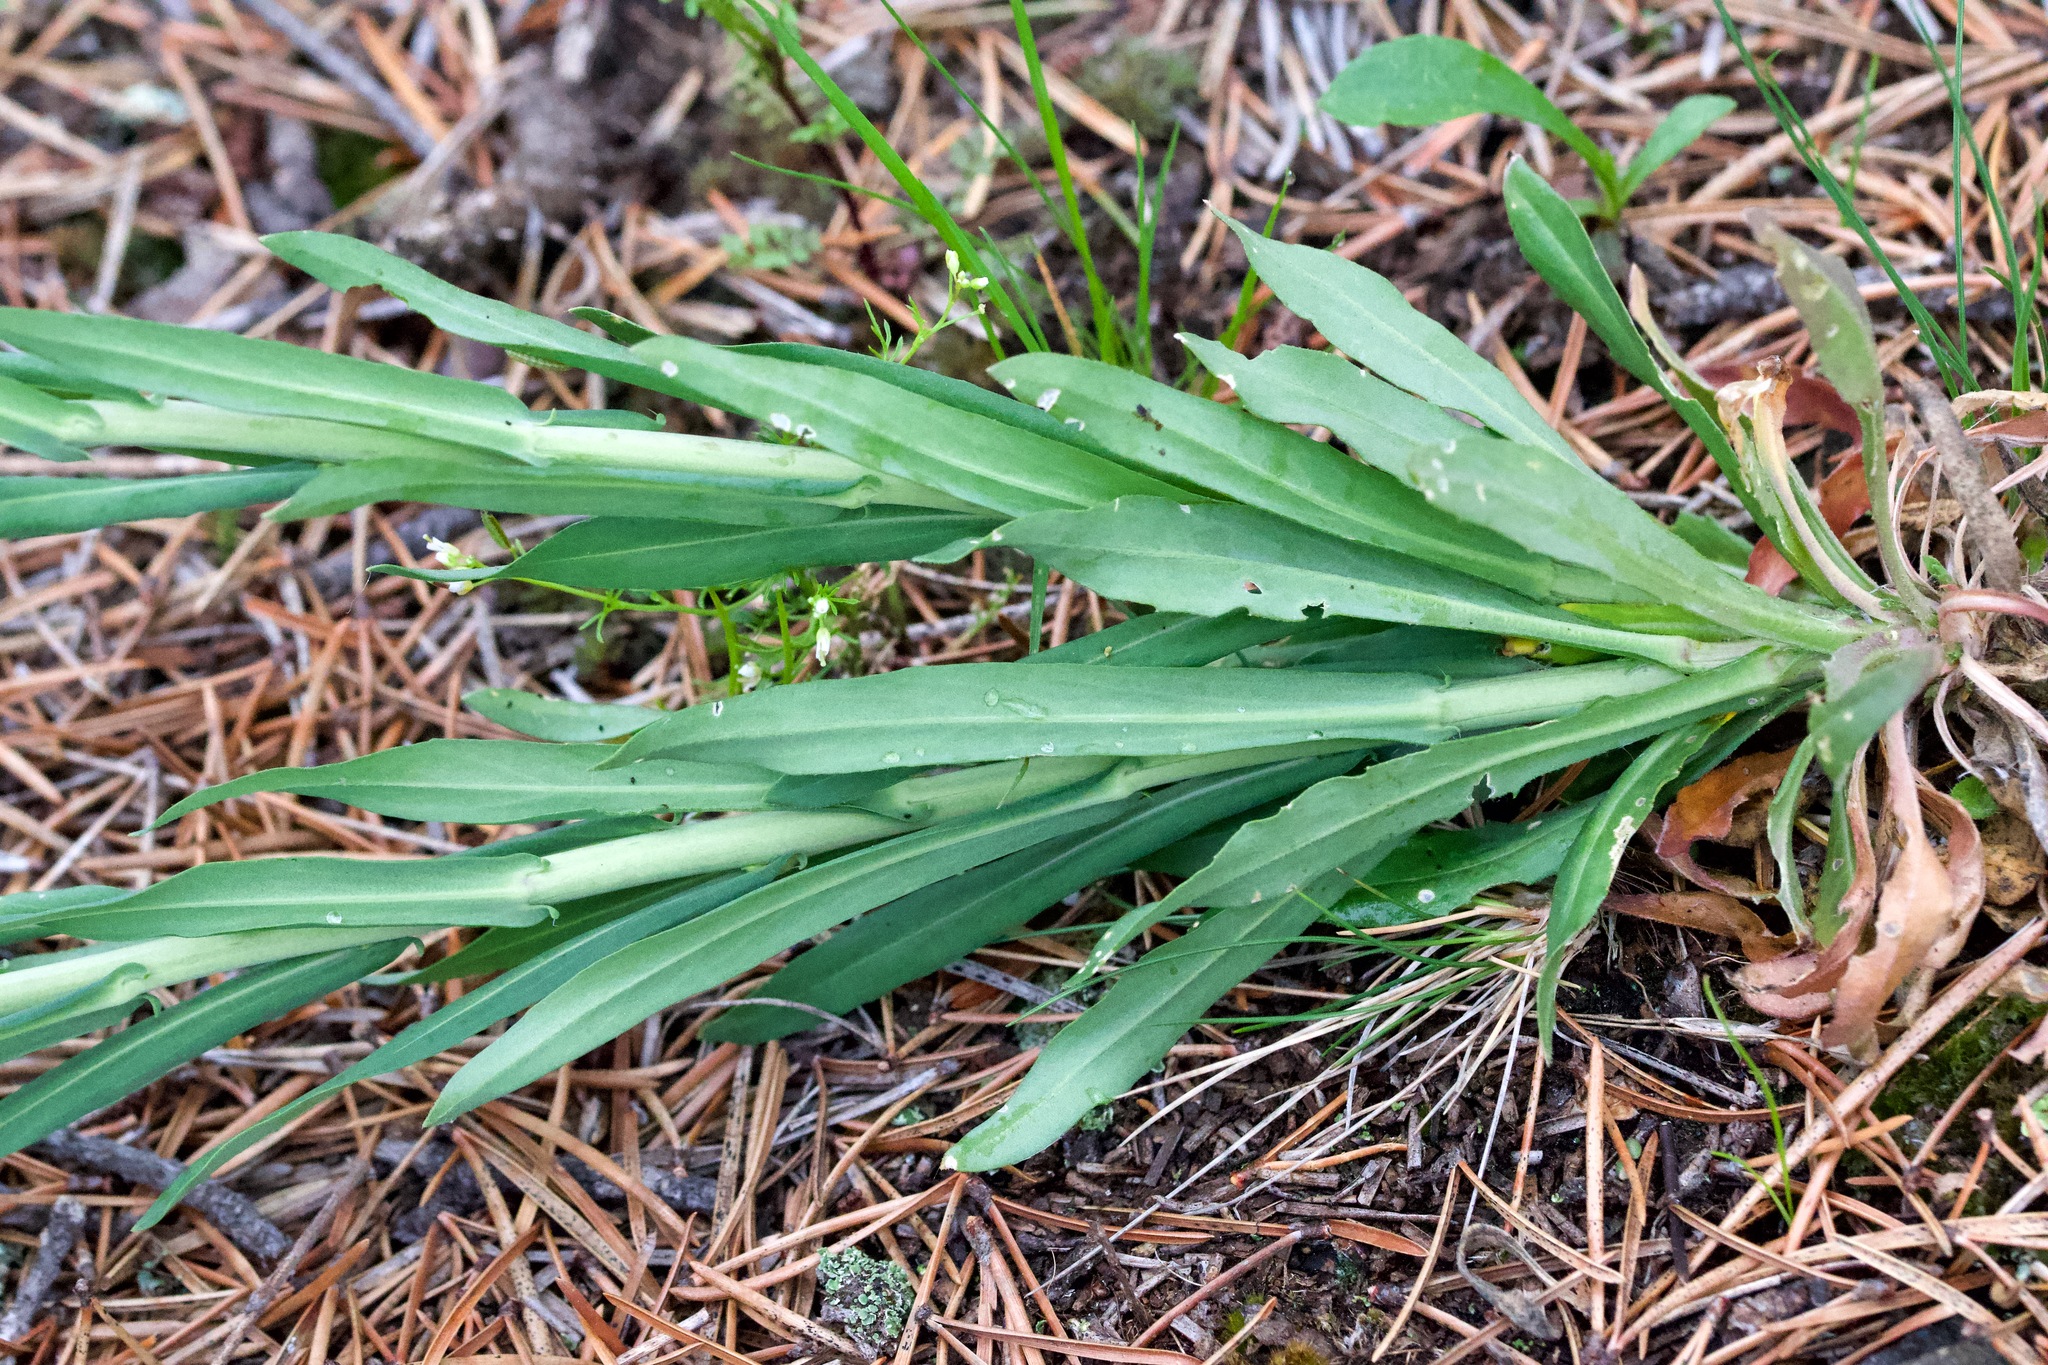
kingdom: Plantae
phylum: Tracheophyta
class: Magnoliopsida
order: Brassicales
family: Brassicaceae
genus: Boechera
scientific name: Boechera grahamii
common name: Graham's rockcress
